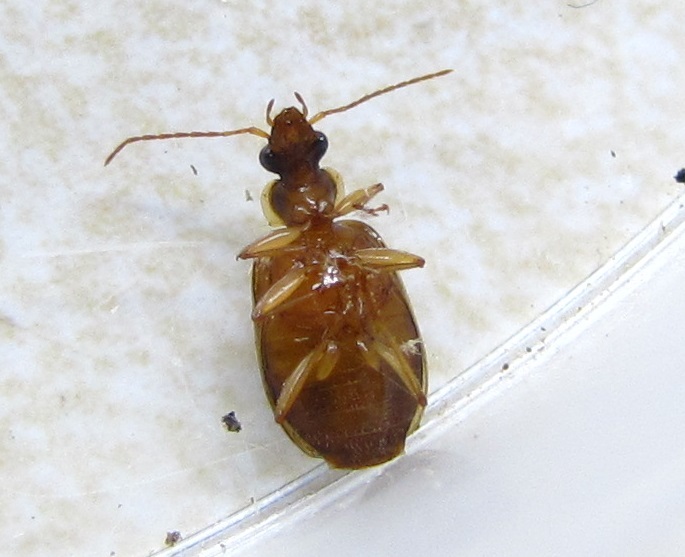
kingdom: Animalia
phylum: Arthropoda
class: Insecta
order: Coleoptera
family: Carabidae
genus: Lebia
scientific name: Lebia fuscata
